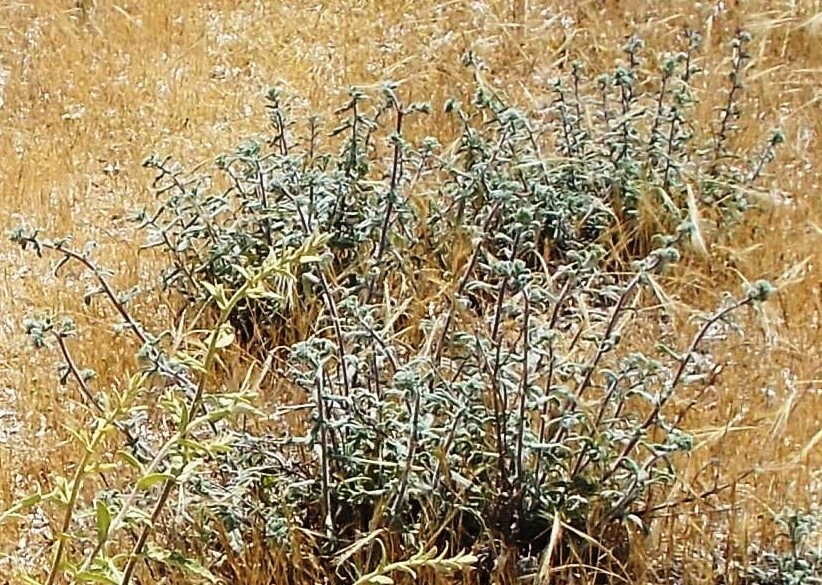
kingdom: Plantae
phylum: Tracheophyta
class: Magnoliopsida
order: Boraginales
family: Boraginaceae
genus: Echium
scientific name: Echium angustifolium
